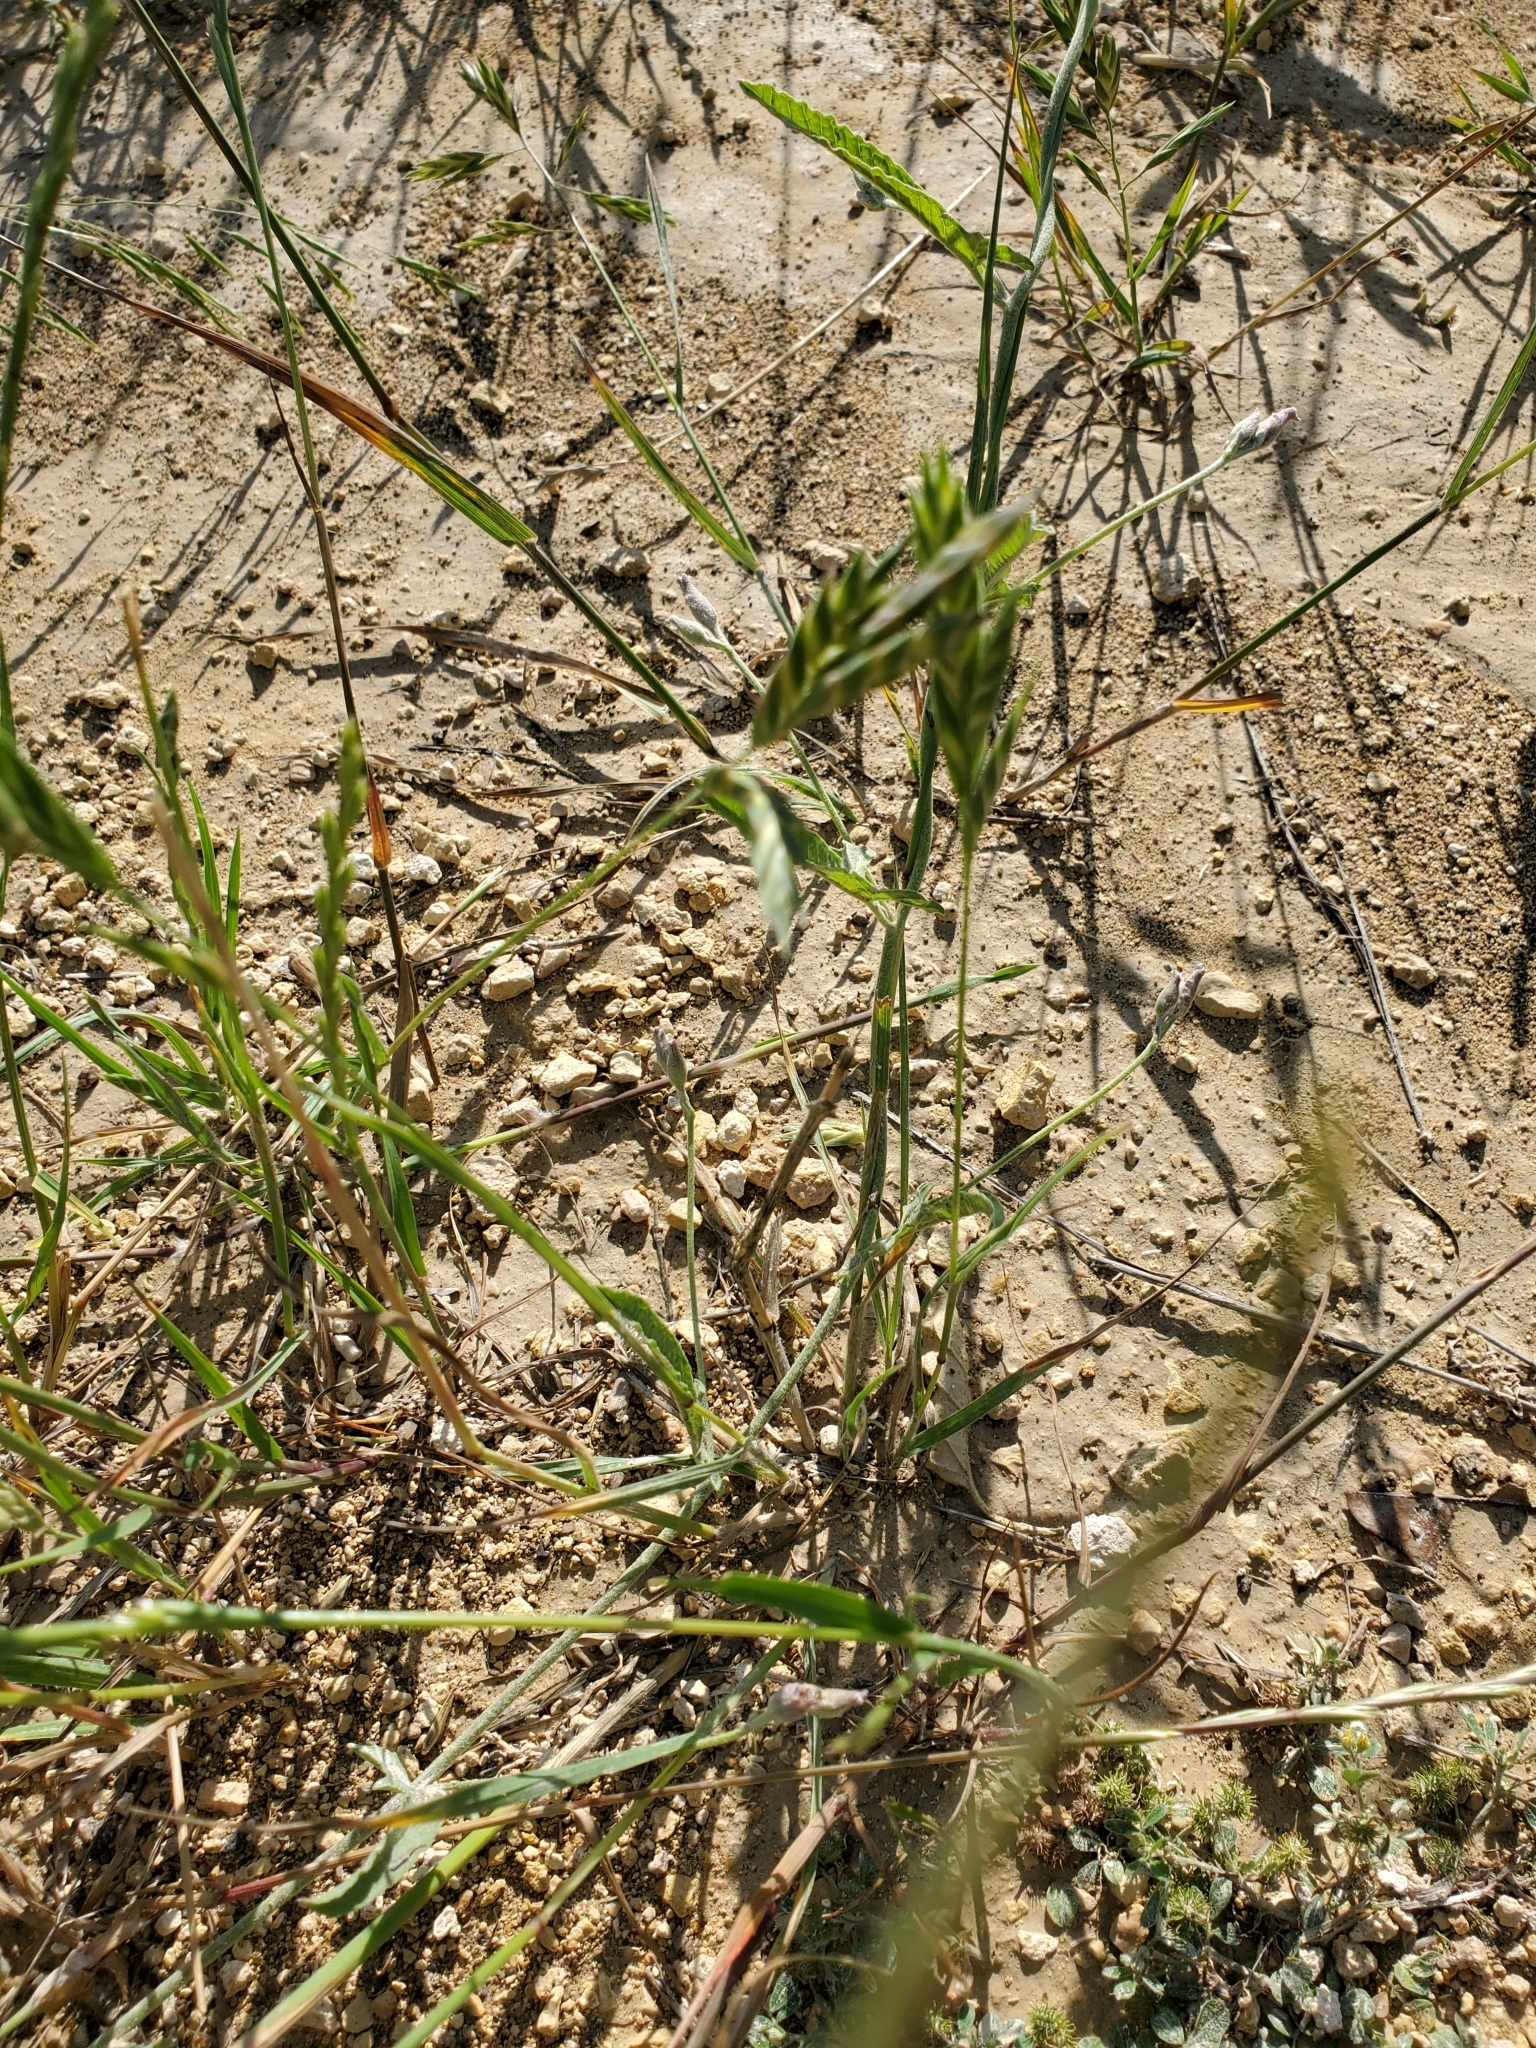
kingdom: Plantae
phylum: Tracheophyta
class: Liliopsida
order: Poales
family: Poaceae
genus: Bromus
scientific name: Bromus catharticus
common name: Rescuegrass
